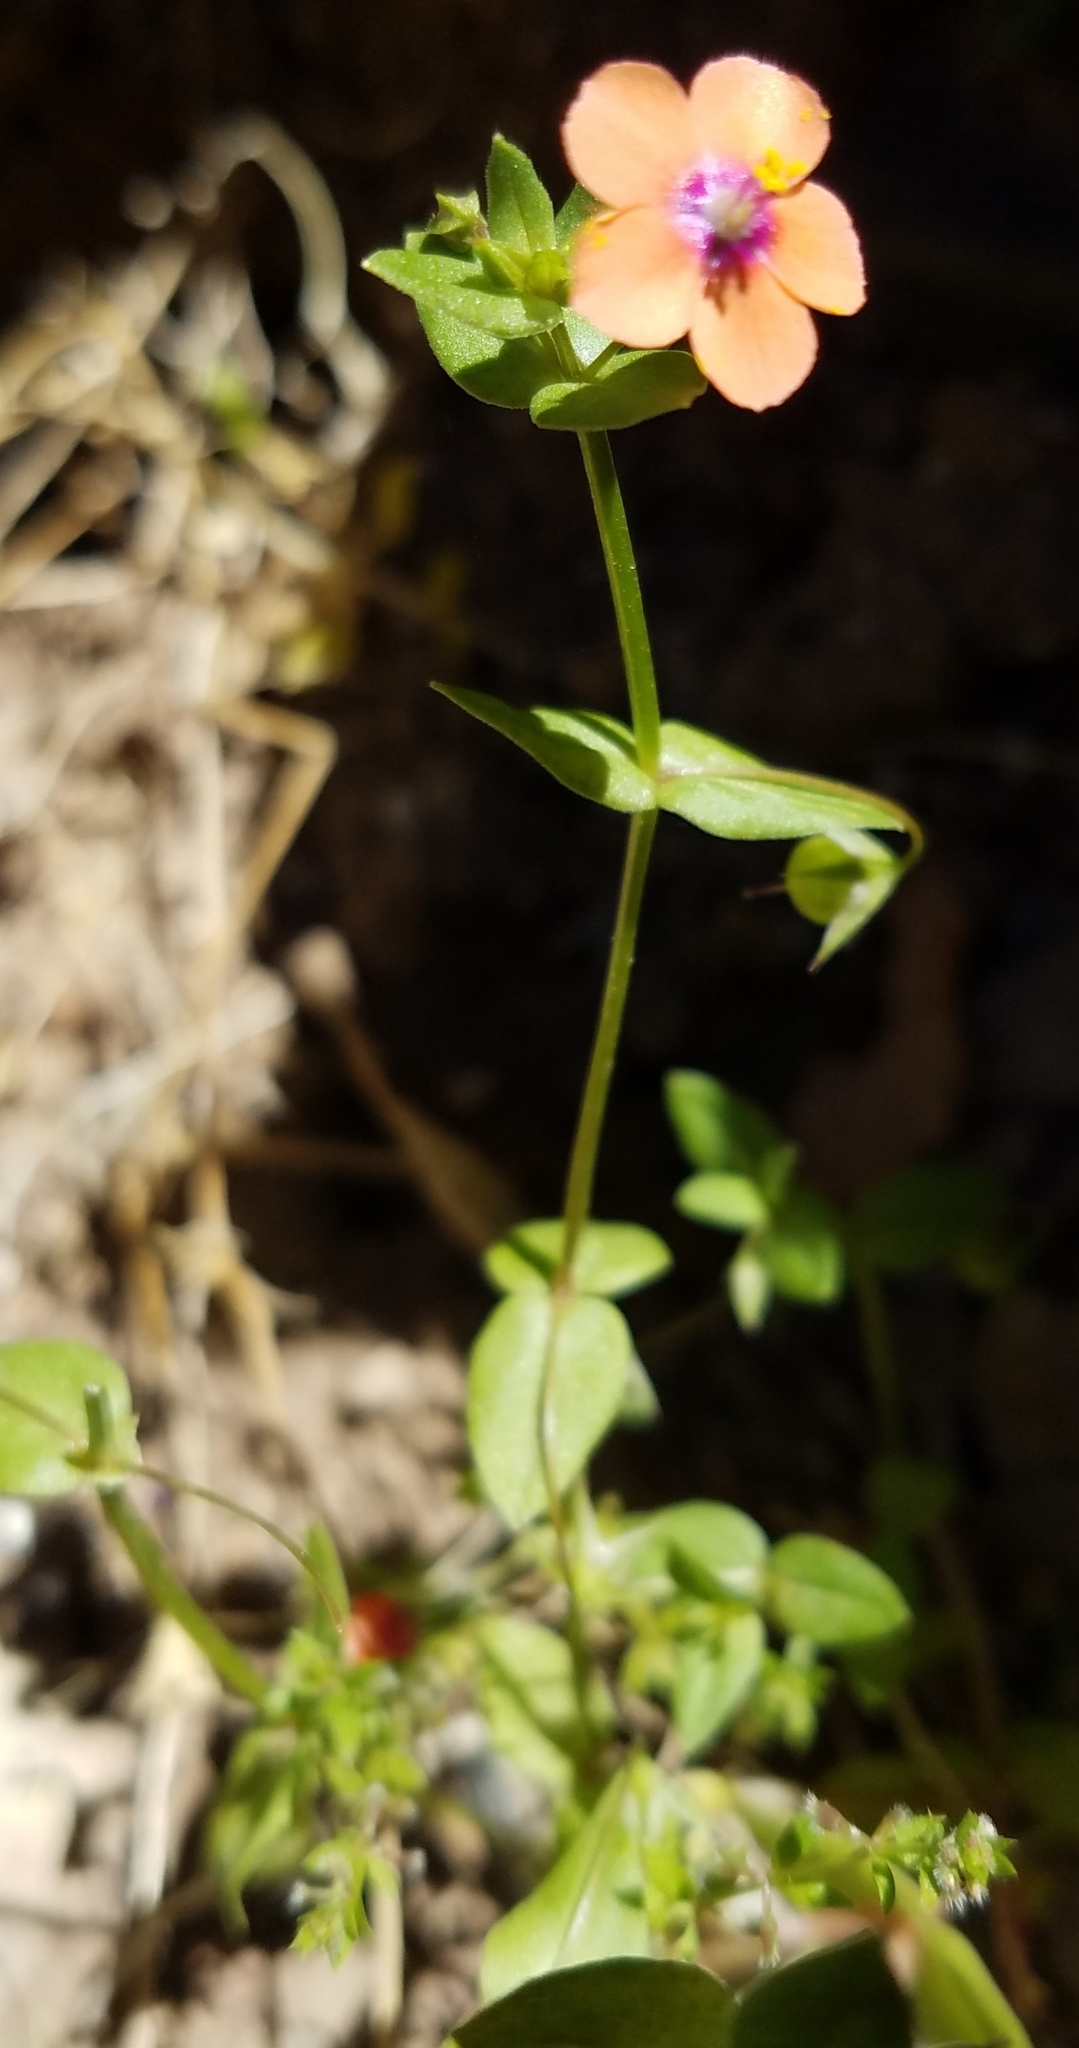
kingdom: Plantae
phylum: Tracheophyta
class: Magnoliopsida
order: Ericales
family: Primulaceae
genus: Lysimachia
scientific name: Lysimachia arvensis
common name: Scarlet pimpernel
